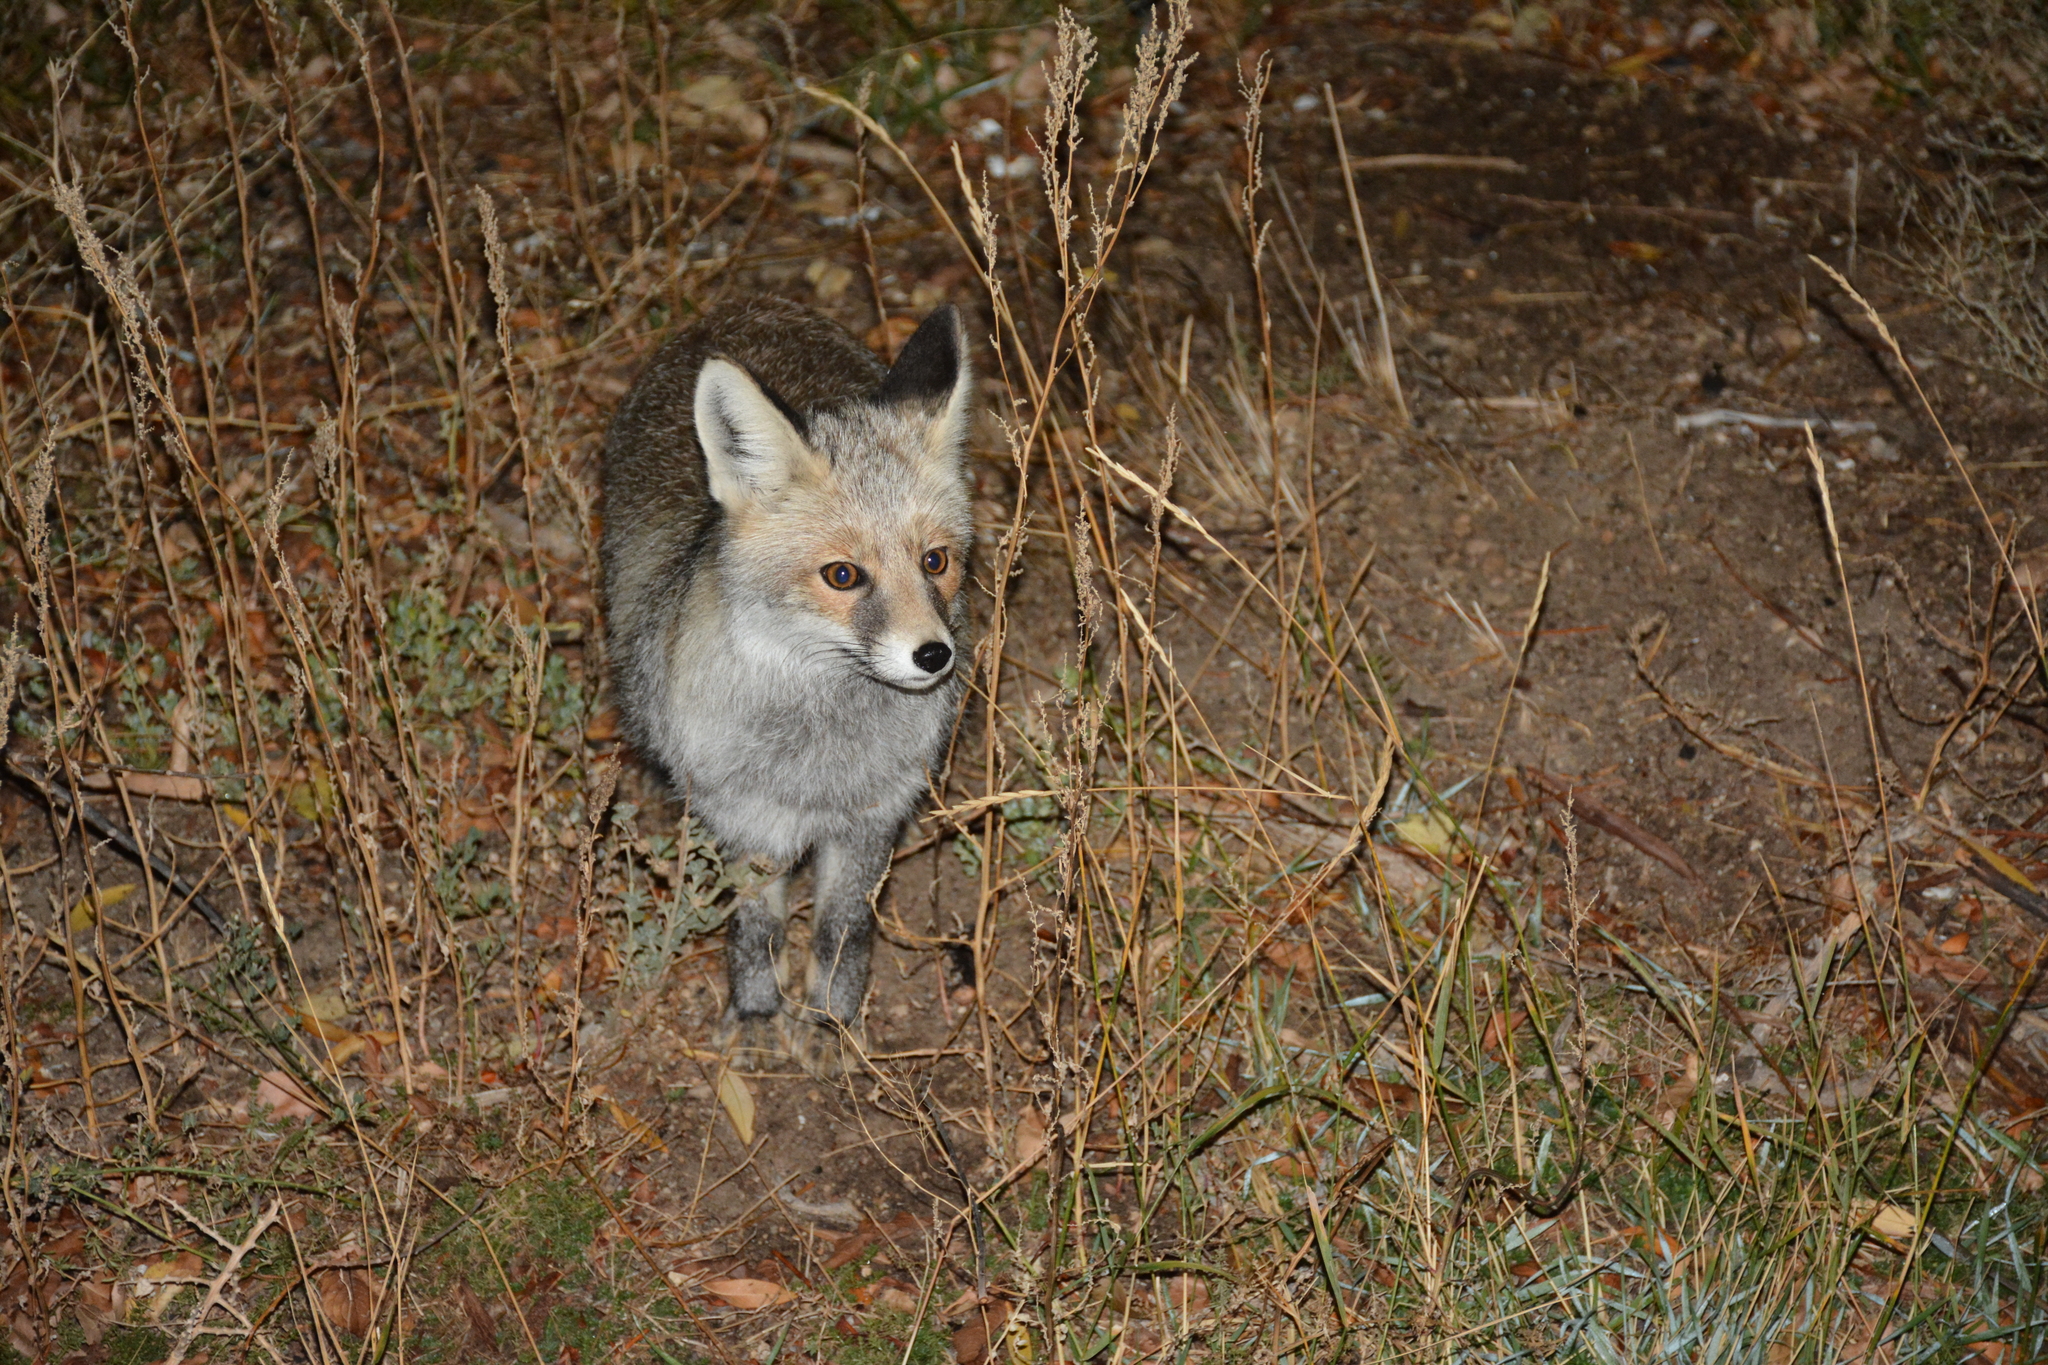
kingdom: Animalia
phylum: Chordata
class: Mammalia
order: Carnivora
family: Canidae
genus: Vulpes
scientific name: Vulpes vulpes
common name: Red fox
